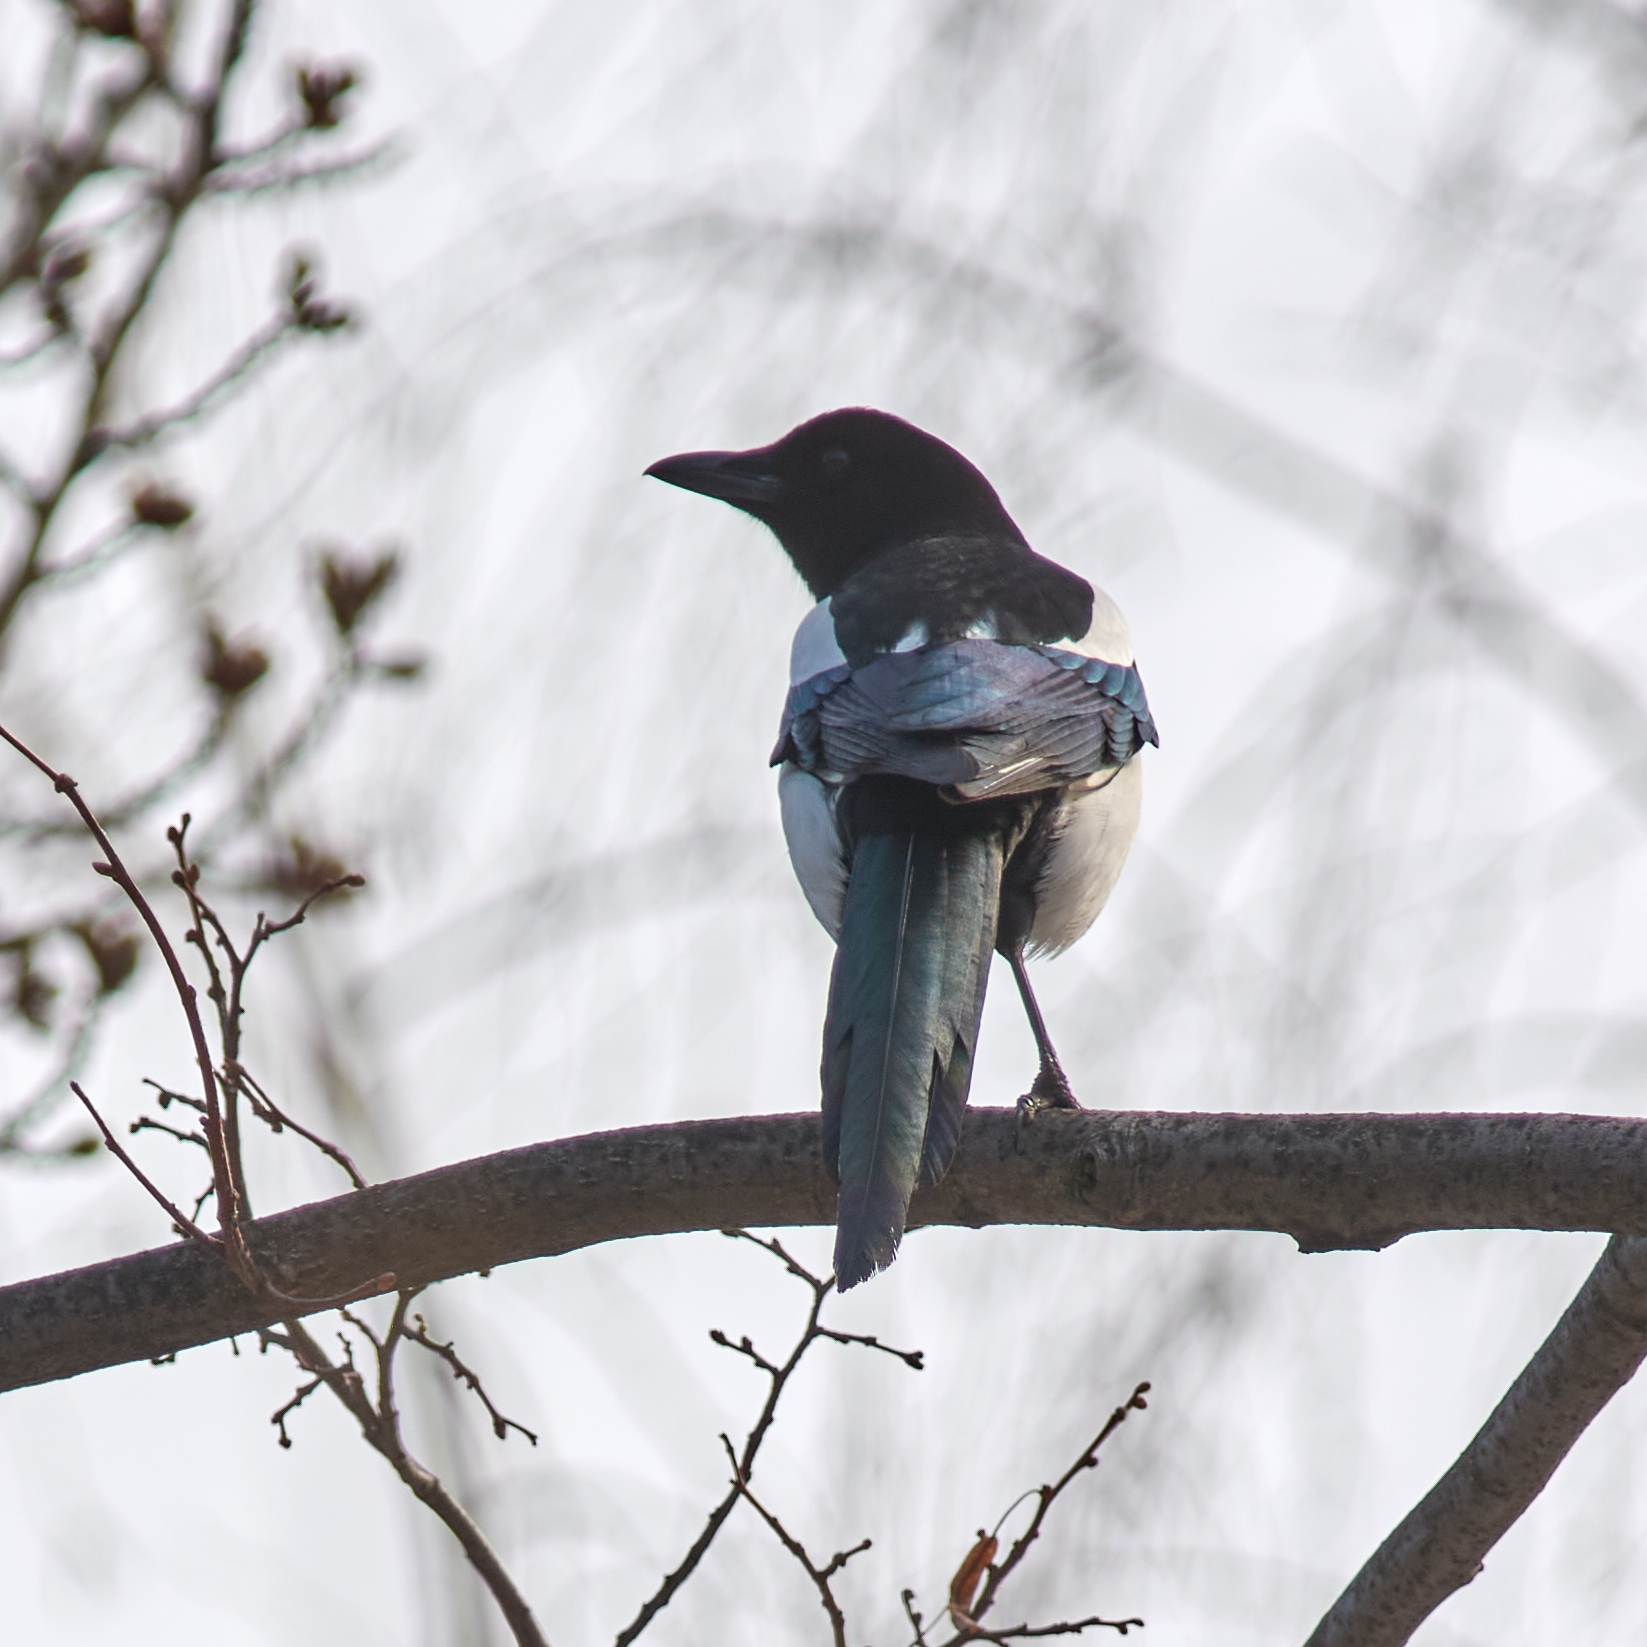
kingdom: Animalia
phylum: Chordata
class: Aves
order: Passeriformes
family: Corvidae
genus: Pica
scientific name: Pica pica
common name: Eurasian magpie
